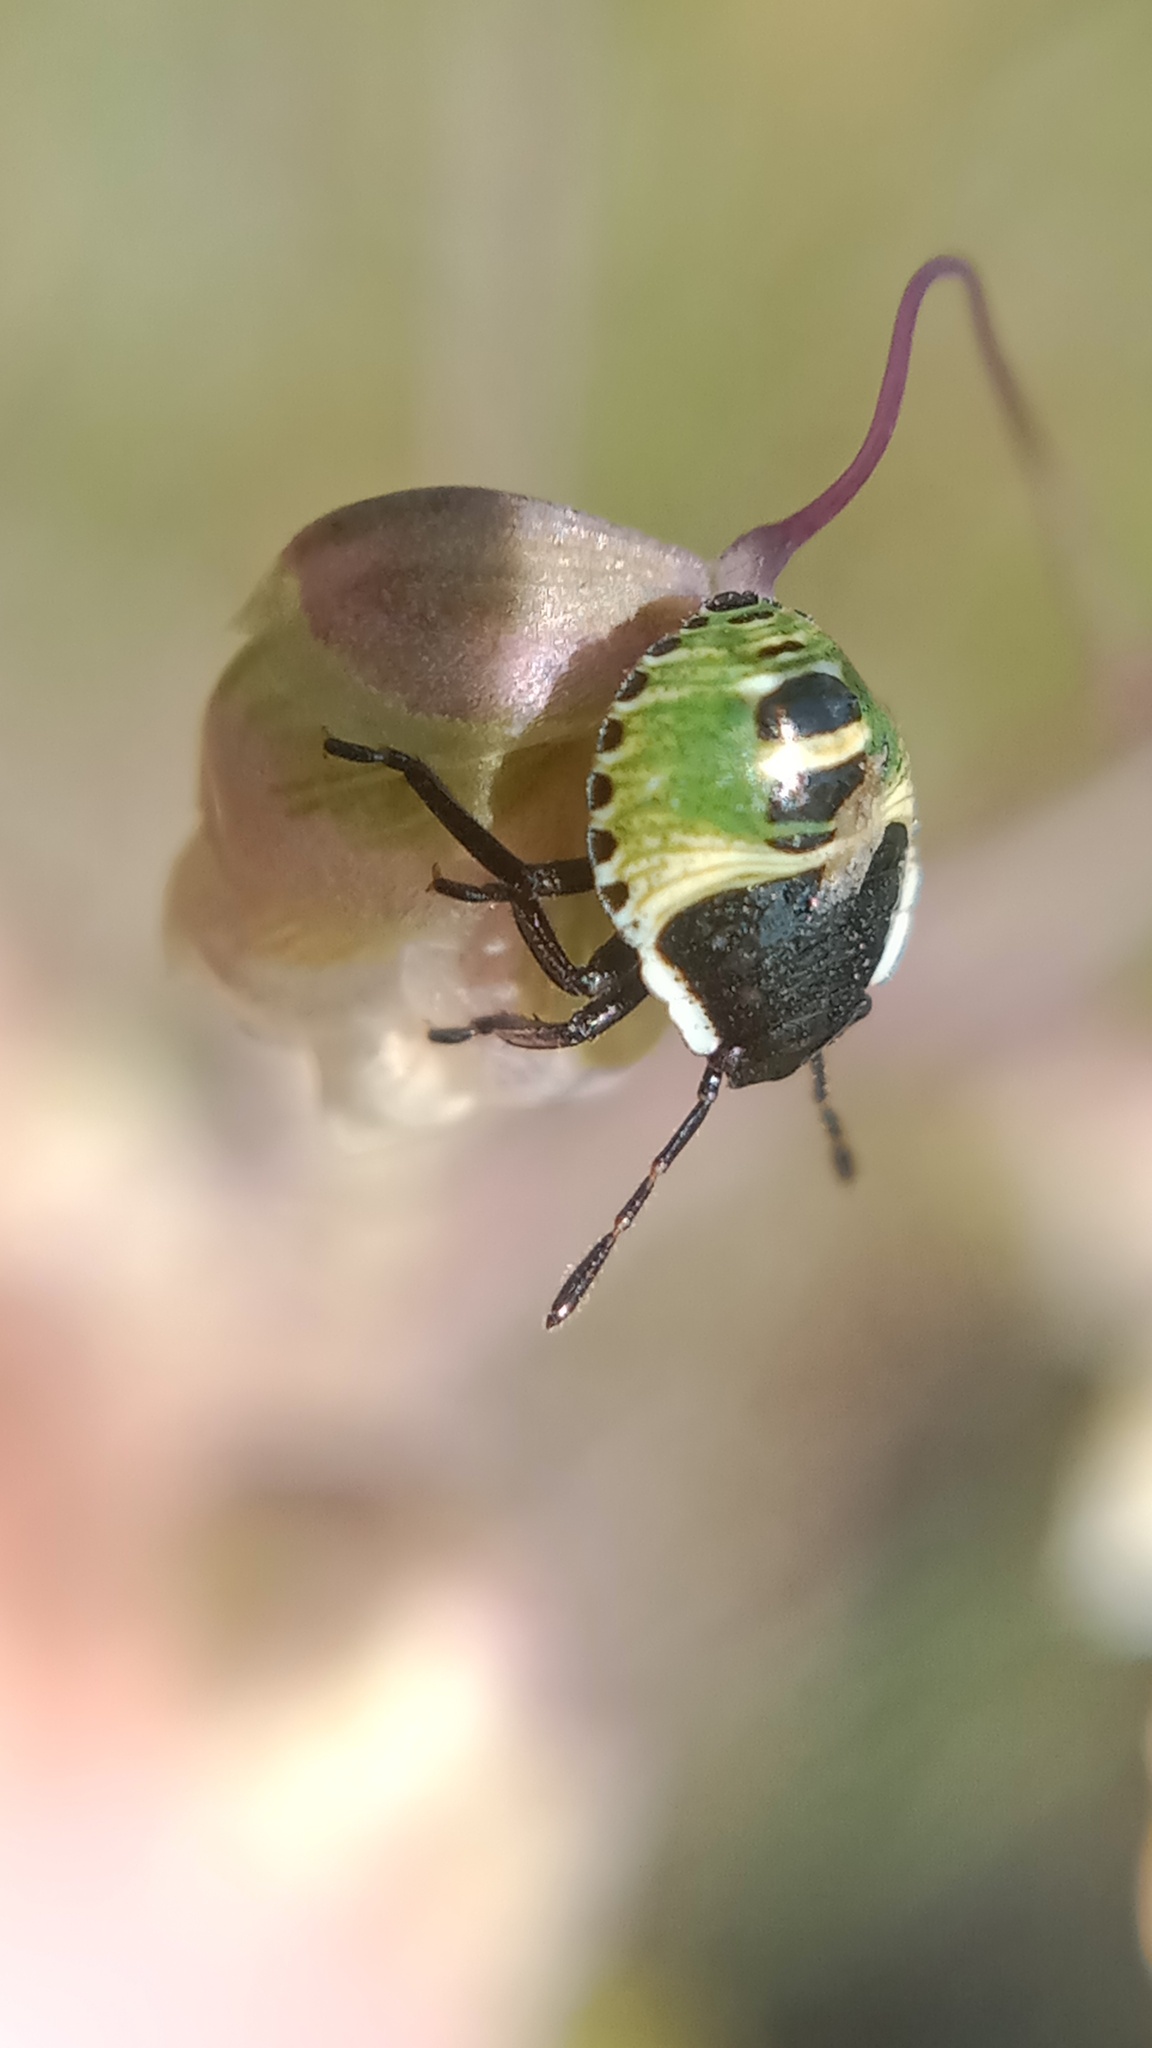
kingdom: Animalia
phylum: Arthropoda
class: Insecta
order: Hemiptera
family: Pentatomidae
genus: Palomena
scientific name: Palomena prasina
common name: Green shieldbug
